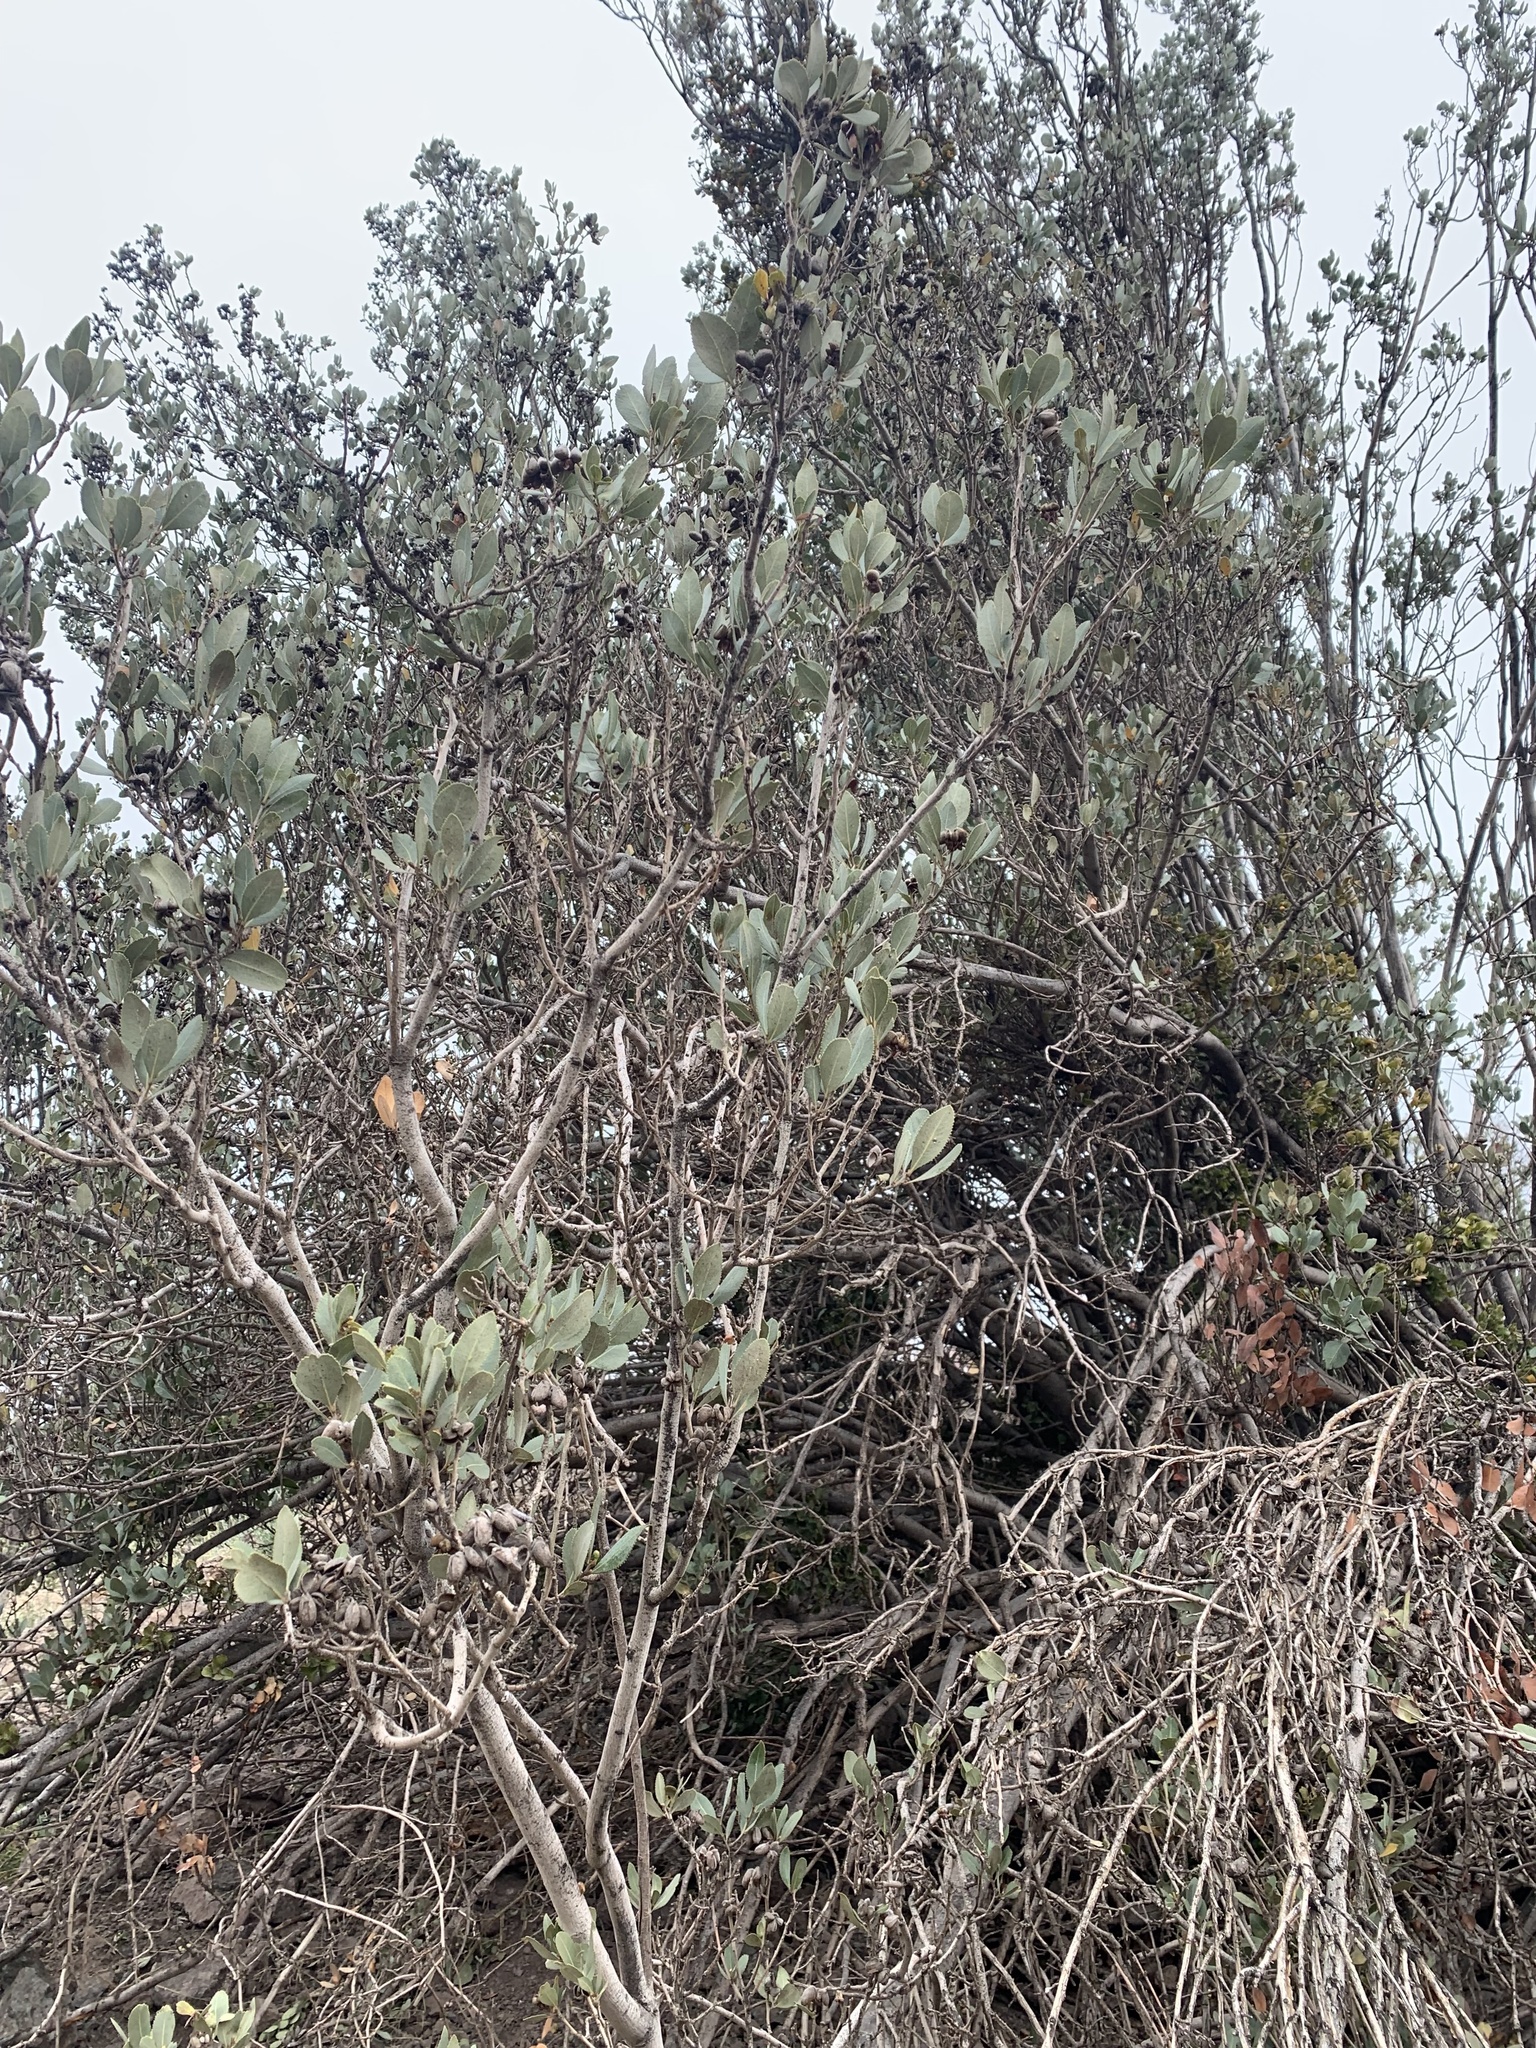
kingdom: Plantae
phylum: Tracheophyta
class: Magnoliopsida
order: Rosales
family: Rosaceae
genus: Kageneckia
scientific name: Kageneckia oblonga
